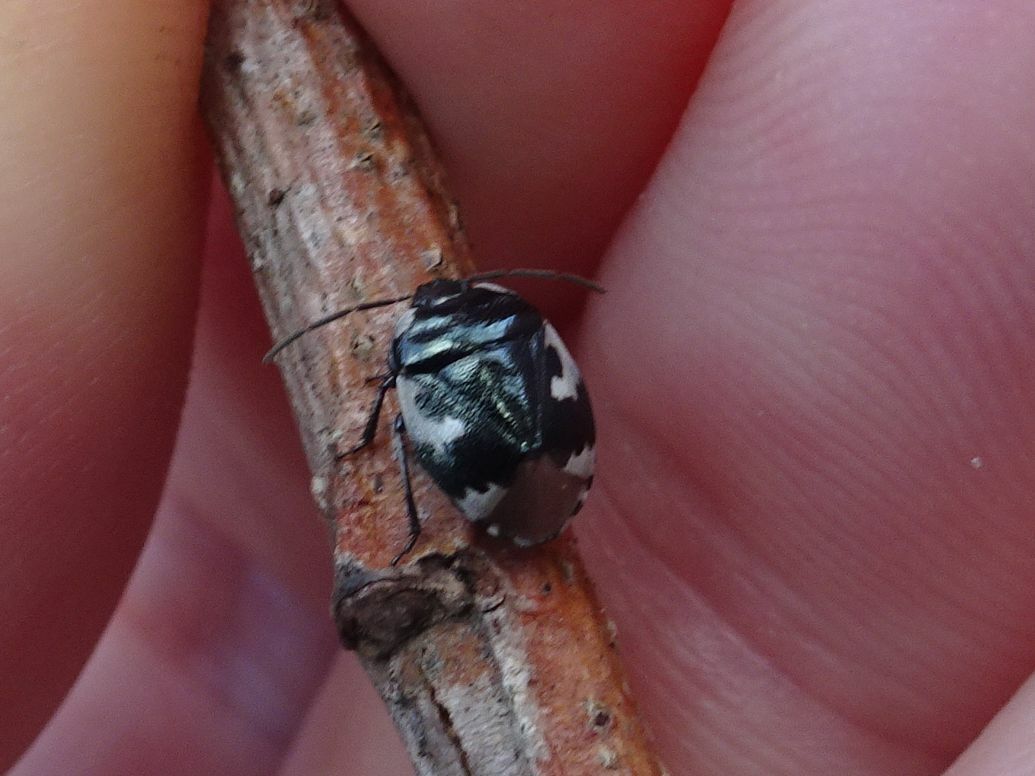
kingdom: Animalia
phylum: Arthropoda
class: Insecta
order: Hemiptera
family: Cydnidae
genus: Tritomegas
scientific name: Tritomegas bicolor
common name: Pied shieldbug
